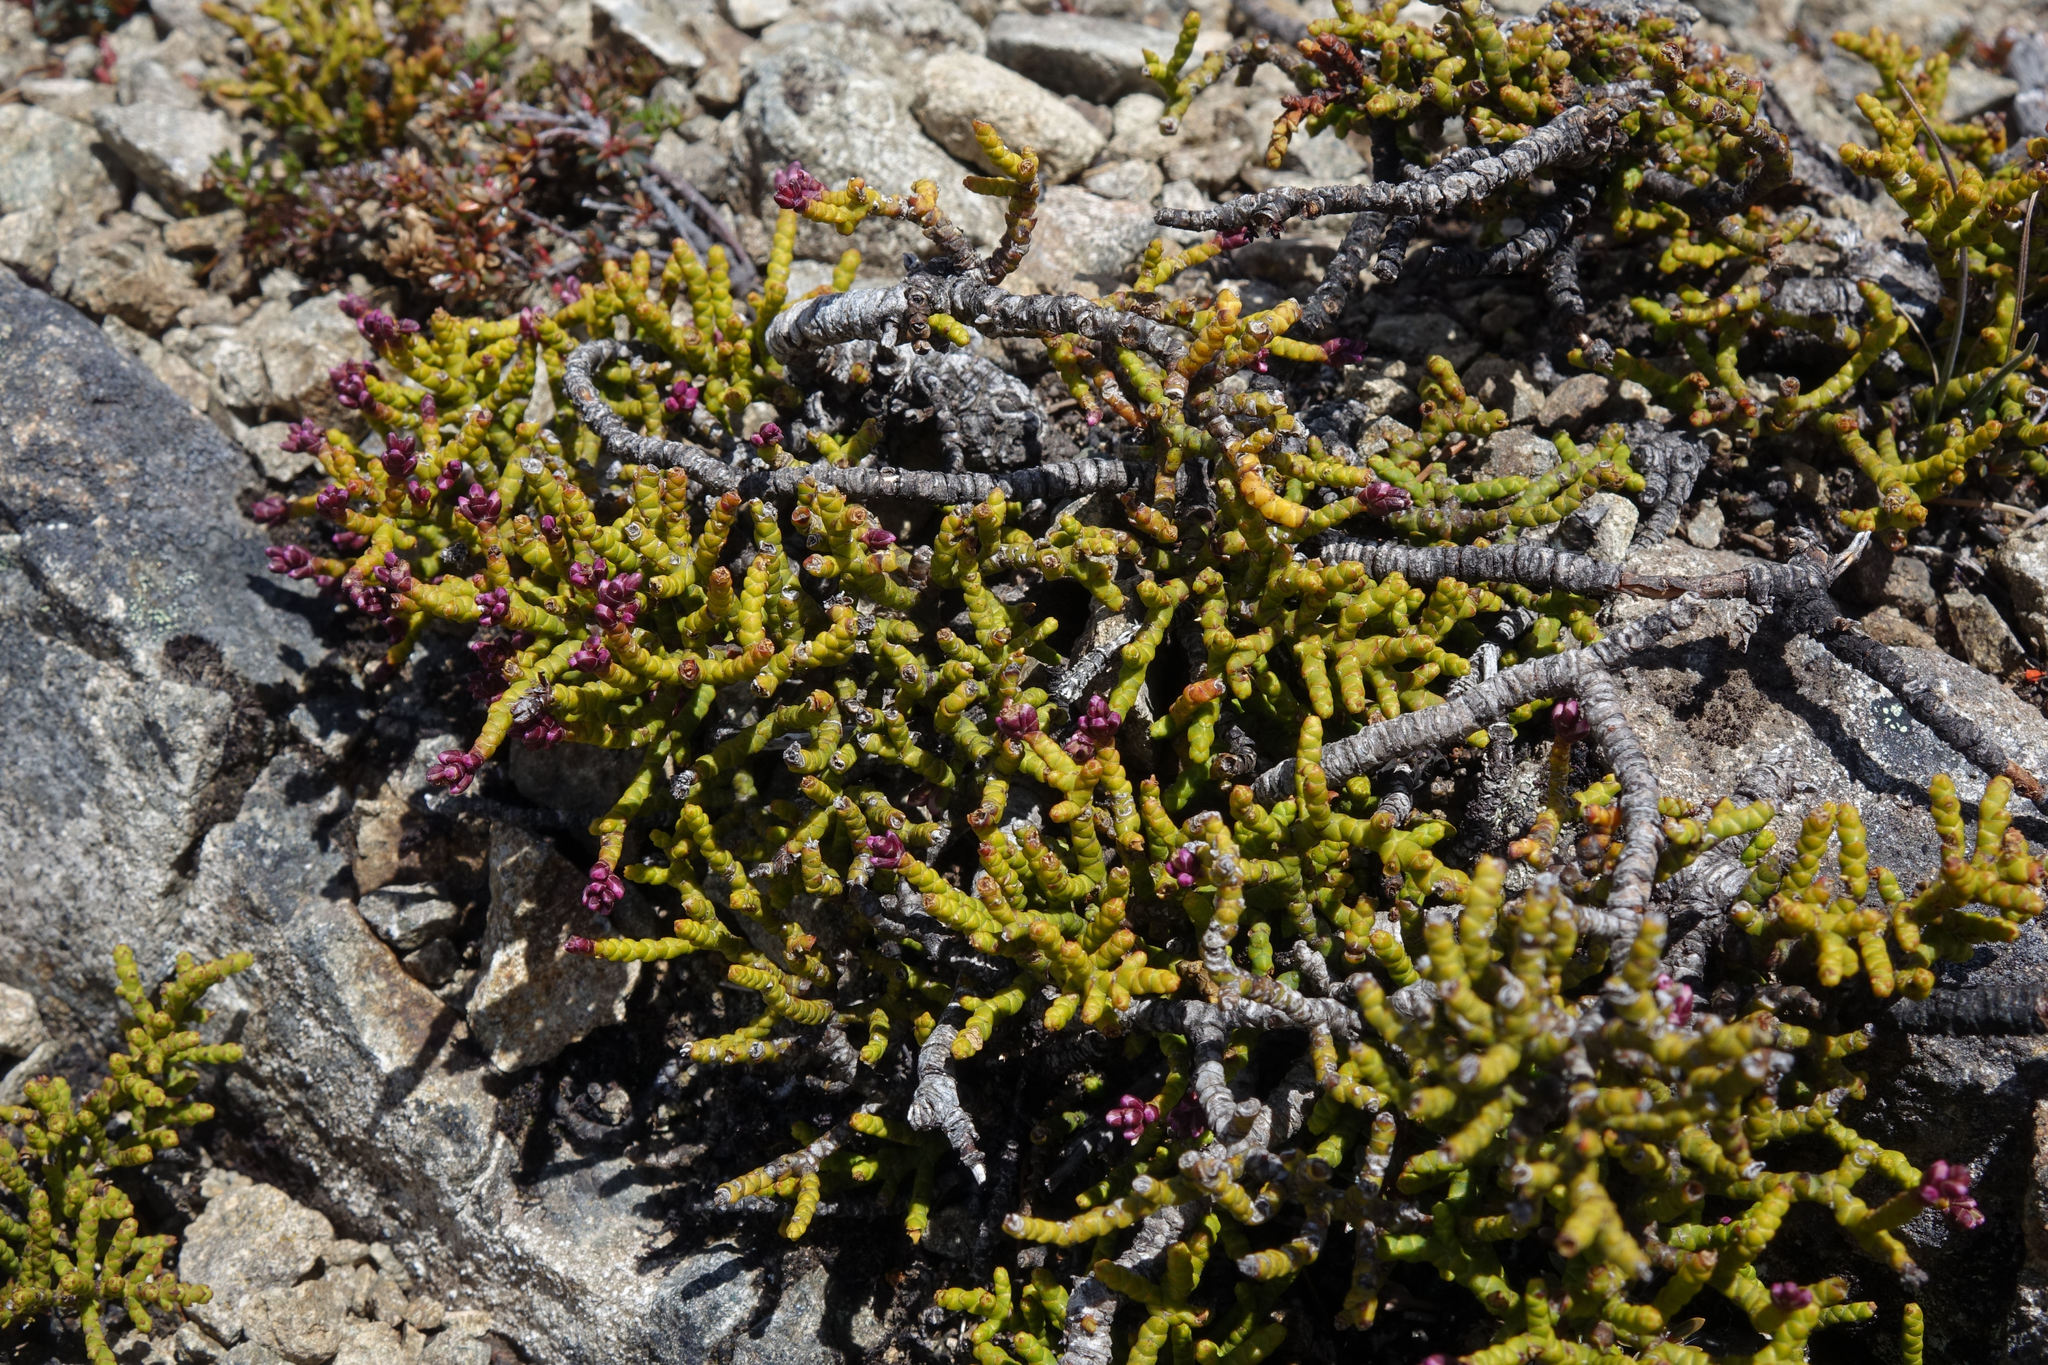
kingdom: Plantae
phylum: Tracheophyta
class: Magnoliopsida
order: Lamiales
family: Plantaginaceae
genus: Veronica
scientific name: Veronica annulata
